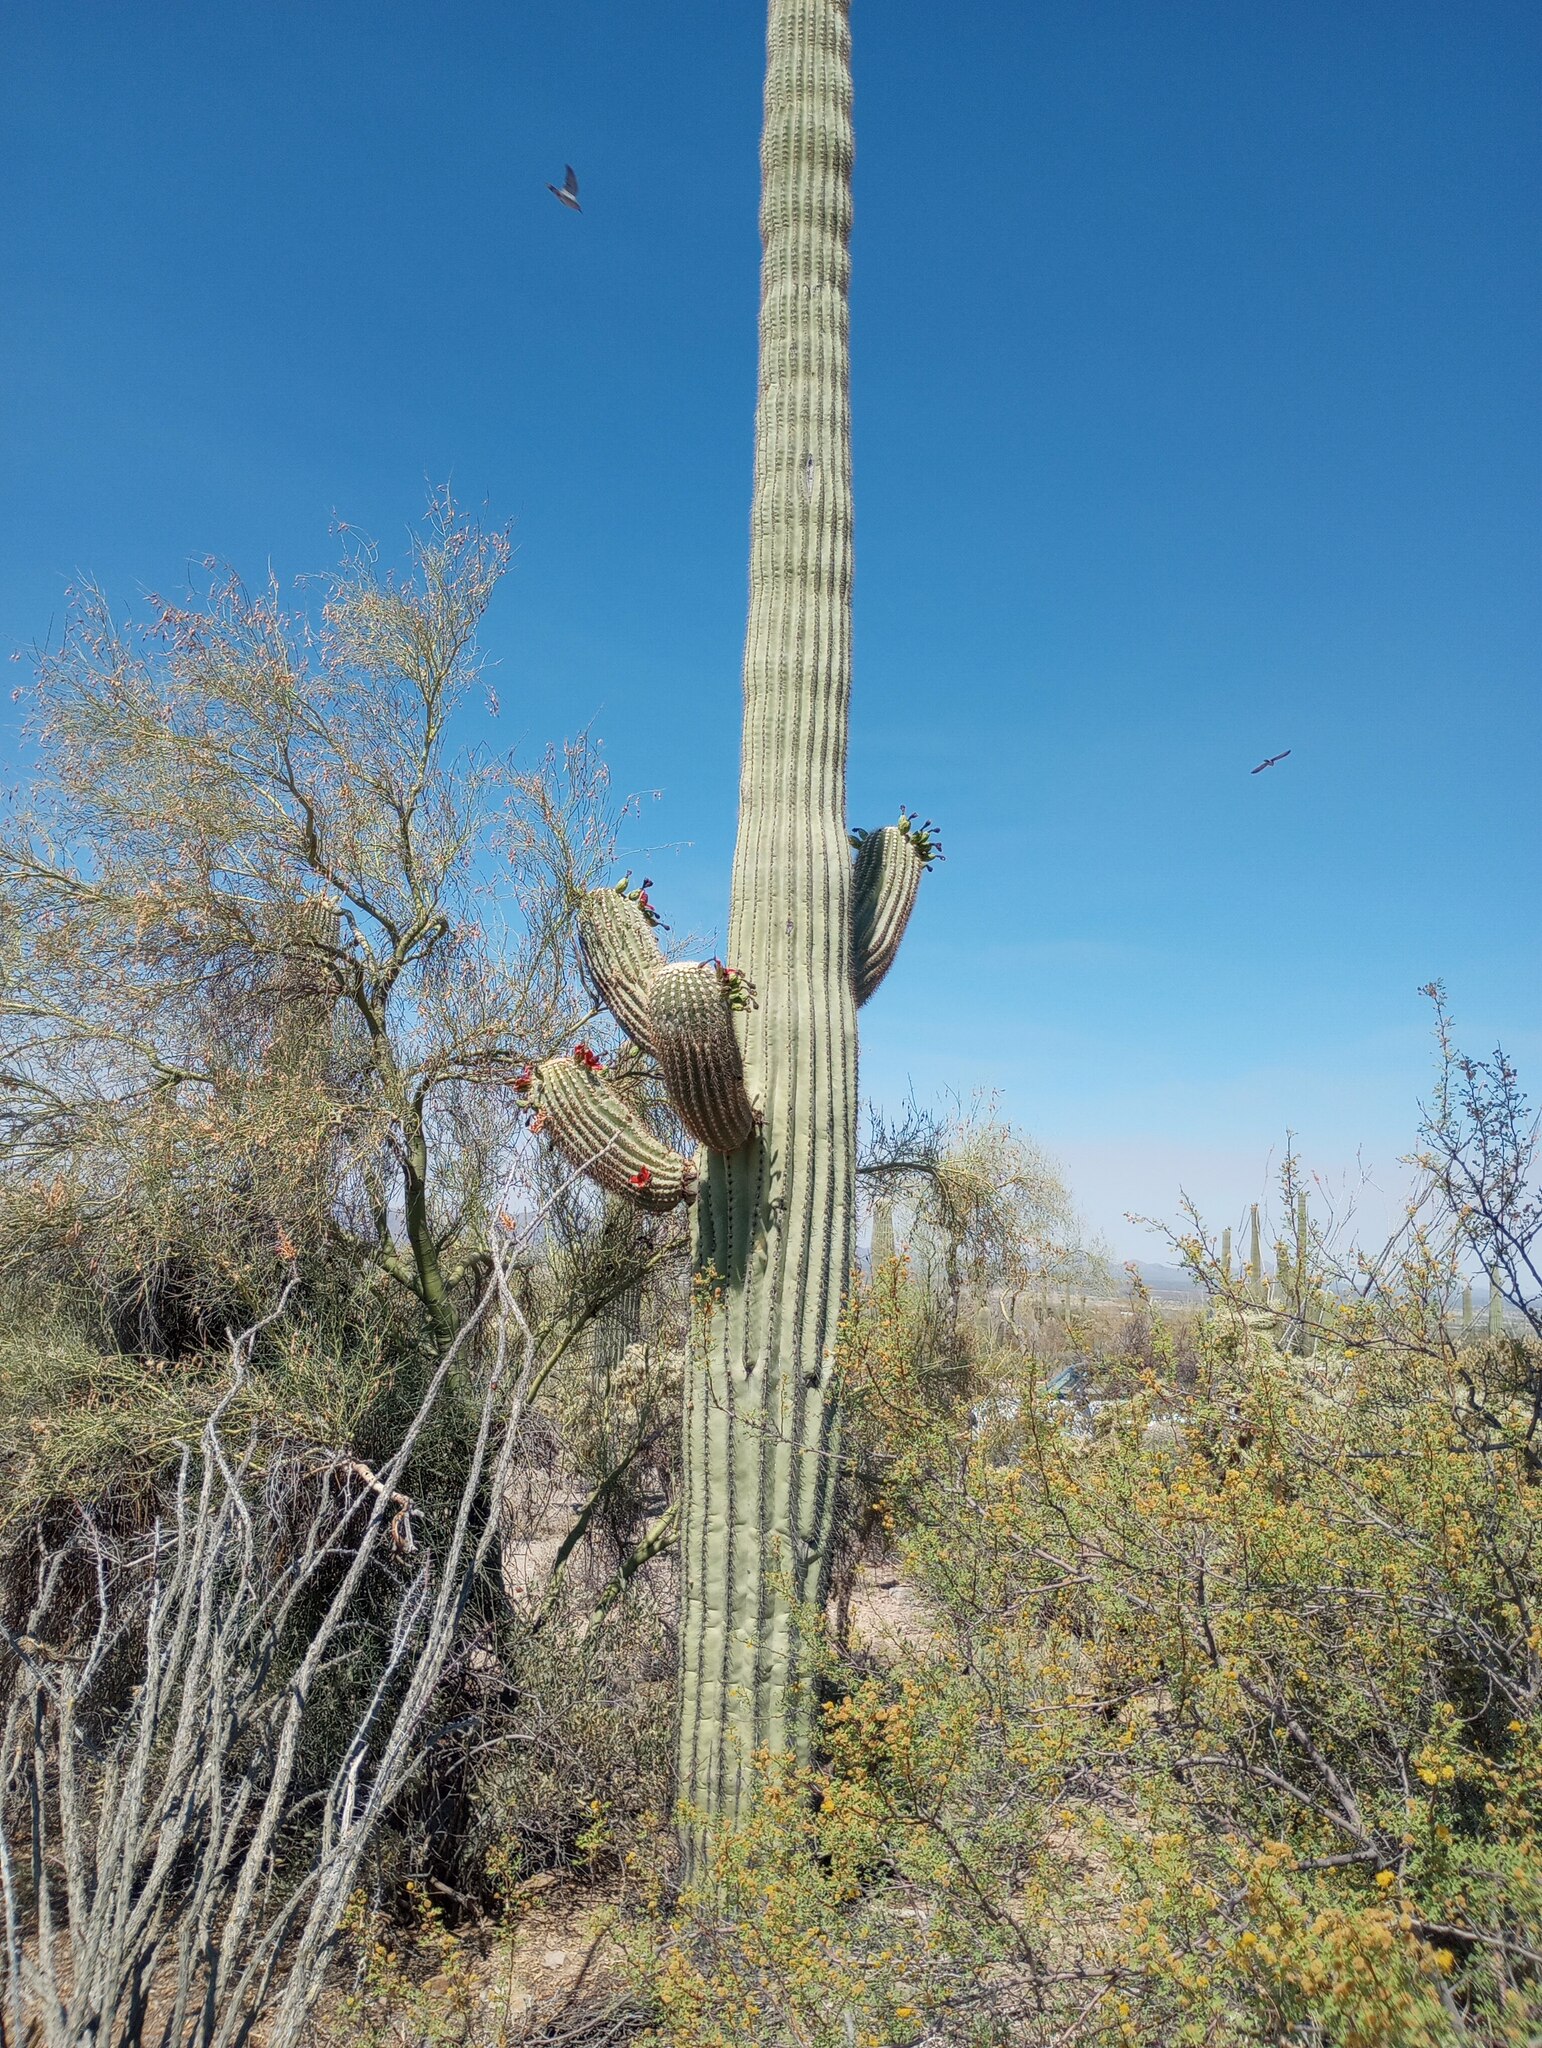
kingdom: Plantae
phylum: Tracheophyta
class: Magnoliopsida
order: Caryophyllales
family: Cactaceae
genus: Carnegiea
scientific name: Carnegiea gigantea
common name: Saguaro
